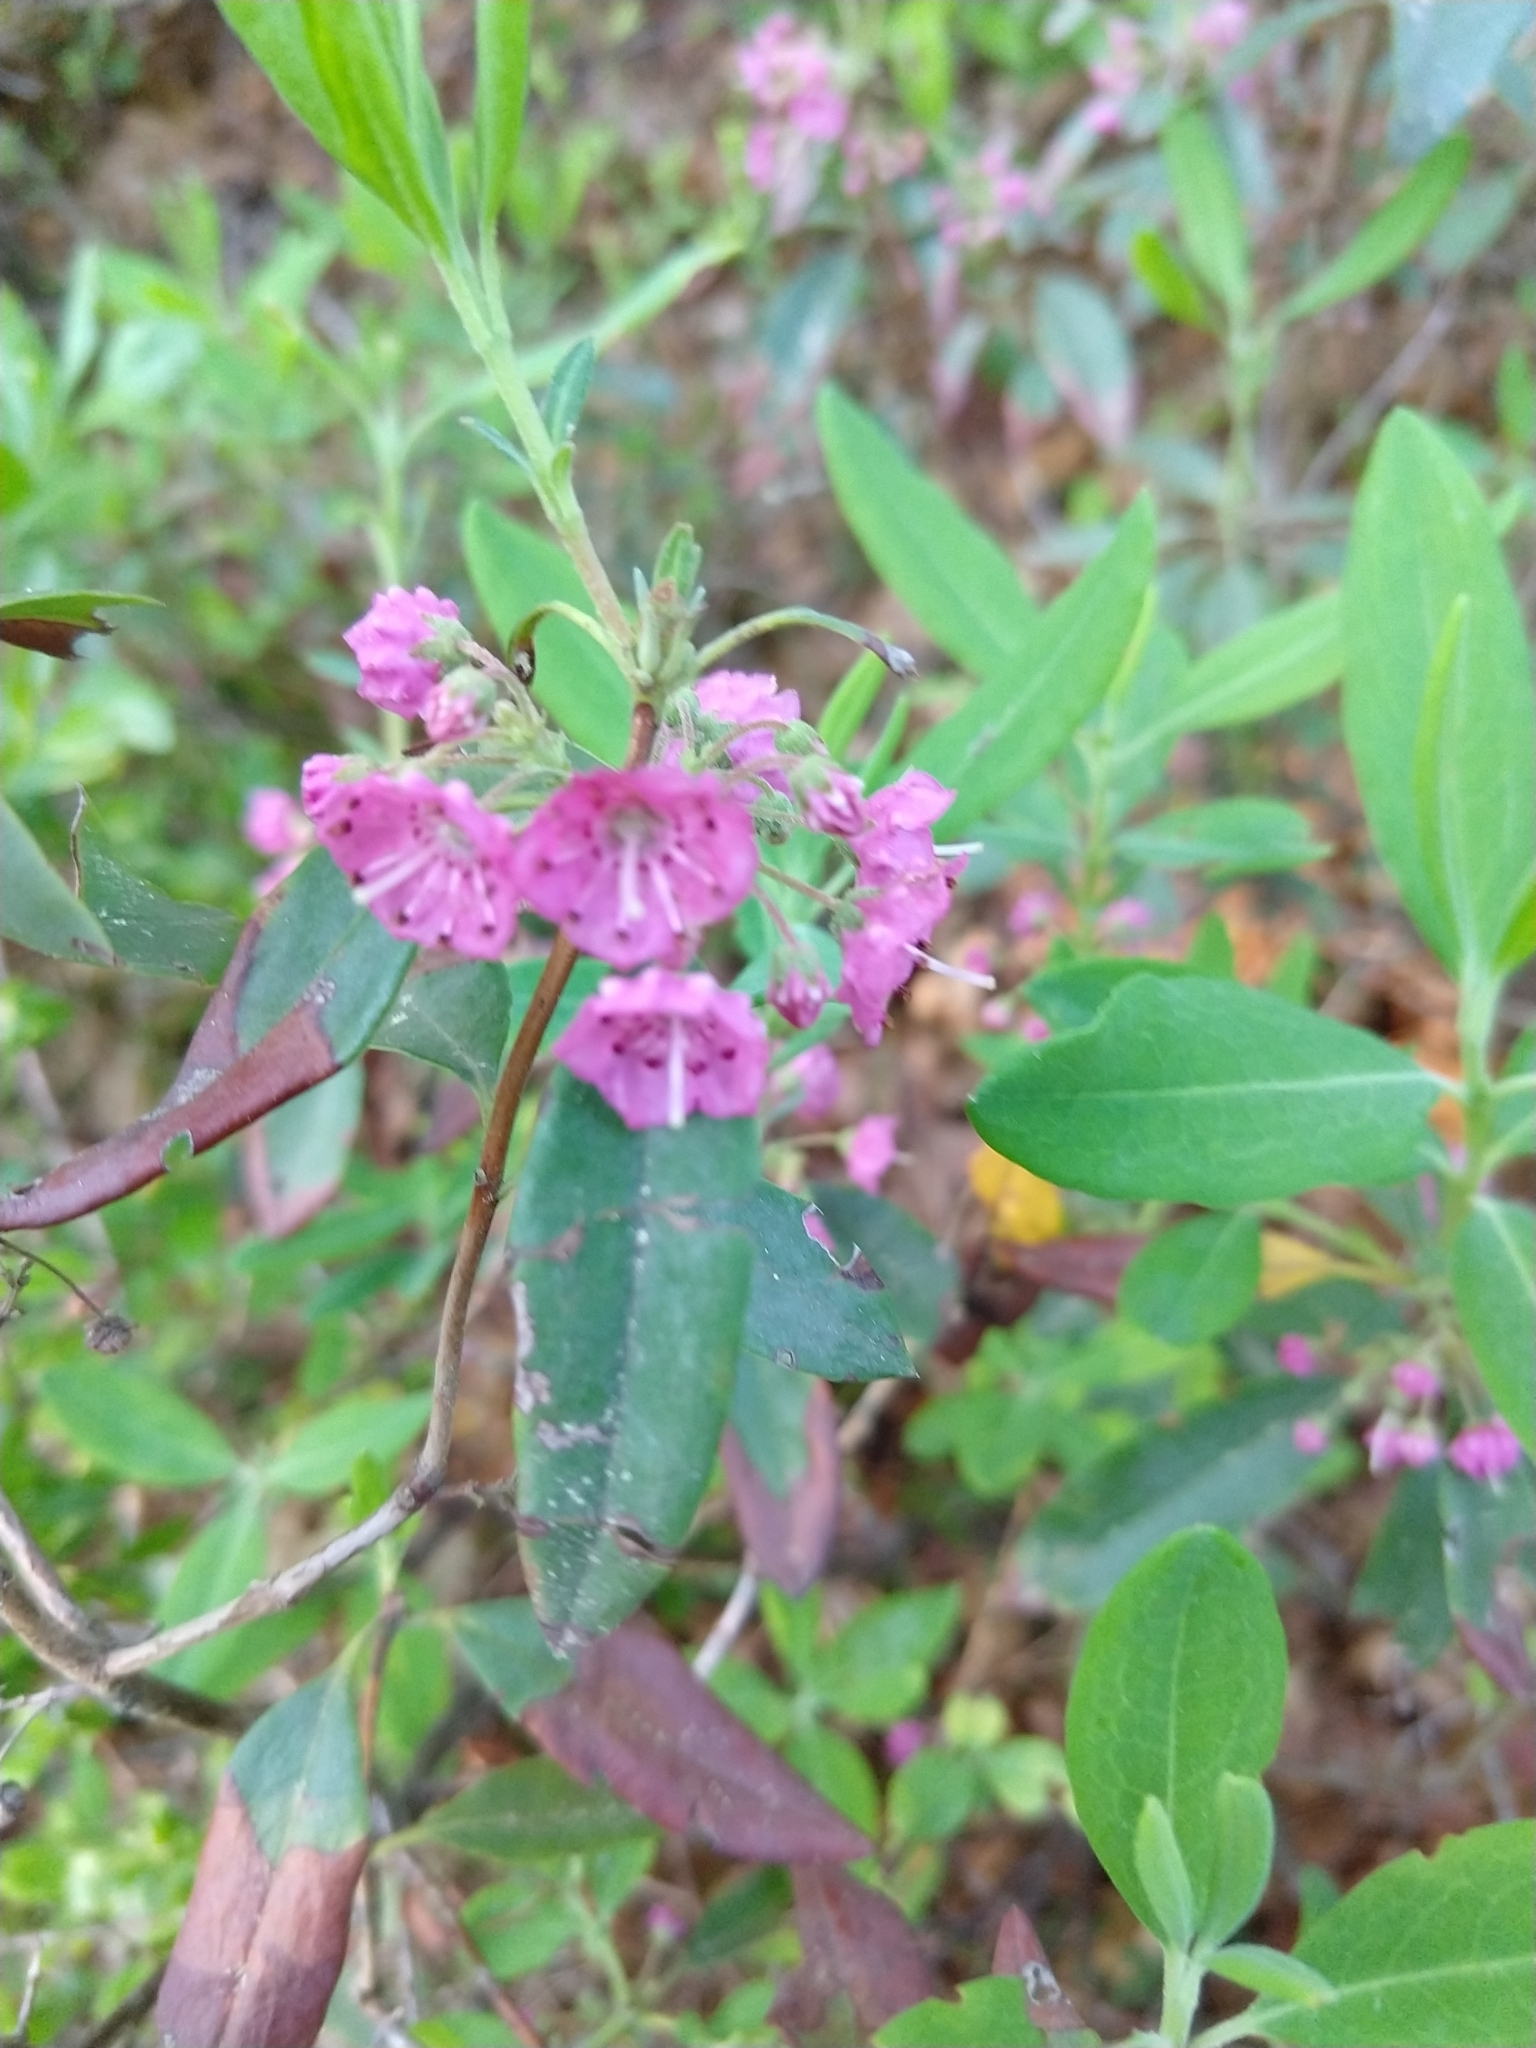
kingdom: Plantae
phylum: Tracheophyta
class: Magnoliopsida
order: Ericales
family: Ericaceae
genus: Kalmia
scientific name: Kalmia angustifolia
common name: Sheep-laurel
